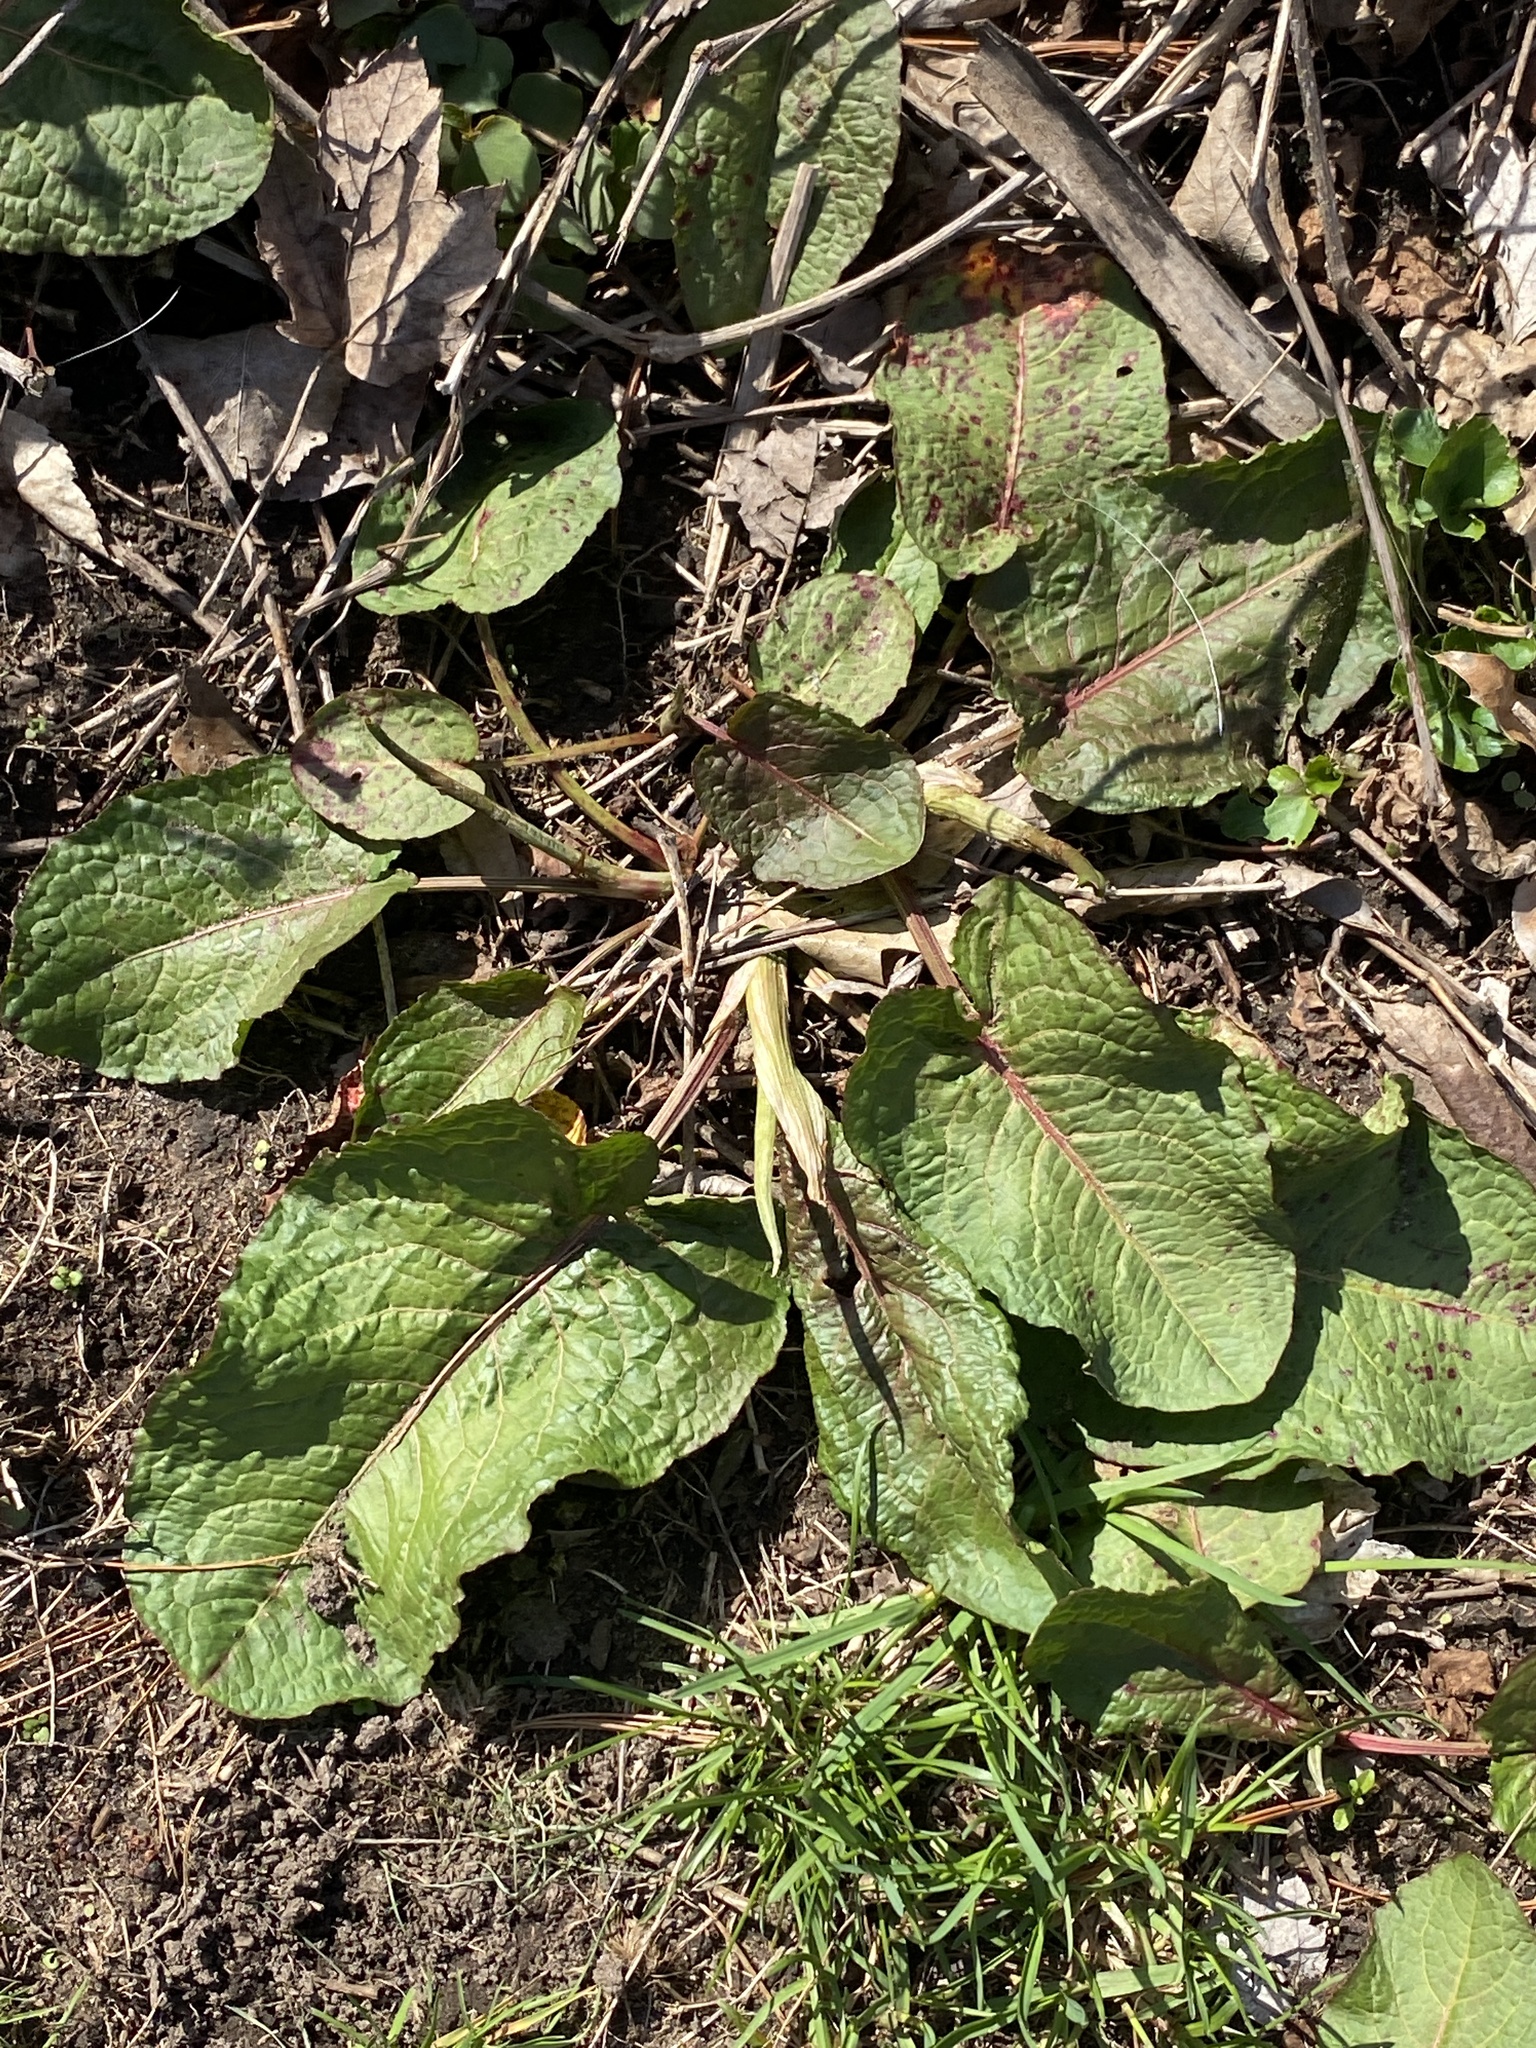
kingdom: Plantae
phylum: Tracheophyta
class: Magnoliopsida
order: Caryophyllales
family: Polygonaceae
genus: Rumex
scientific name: Rumex obtusifolius
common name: Bitter dock
